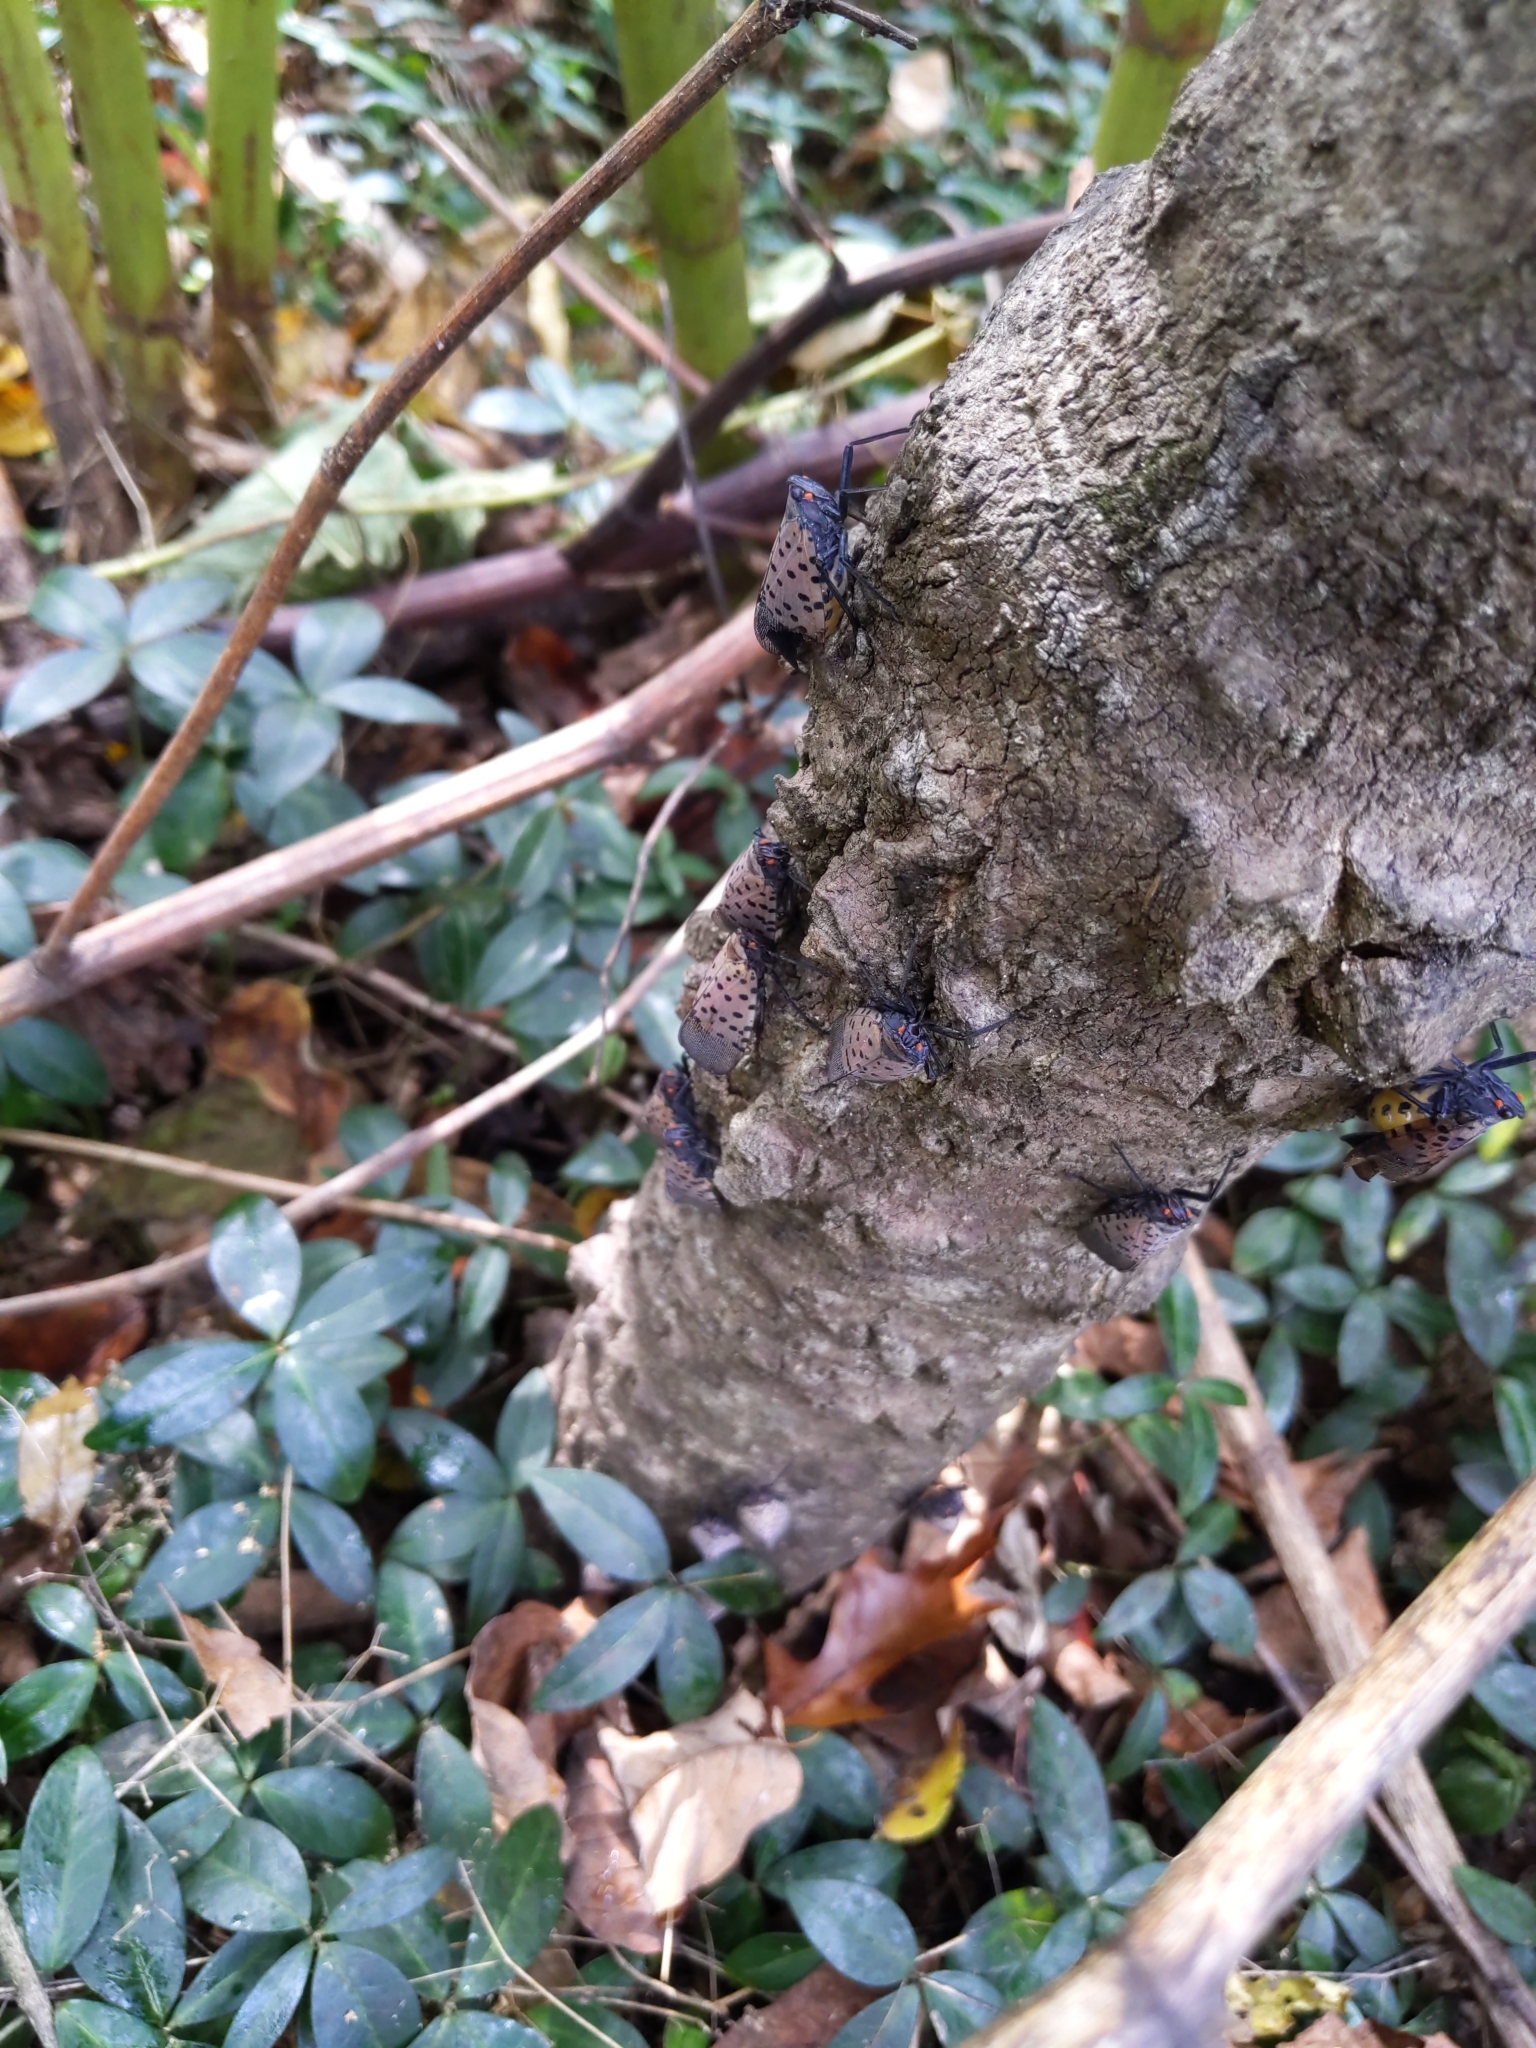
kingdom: Animalia
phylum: Arthropoda
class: Insecta
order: Hemiptera
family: Fulgoridae
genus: Lycorma
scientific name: Lycorma delicatula
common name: Spotted lanternfly
